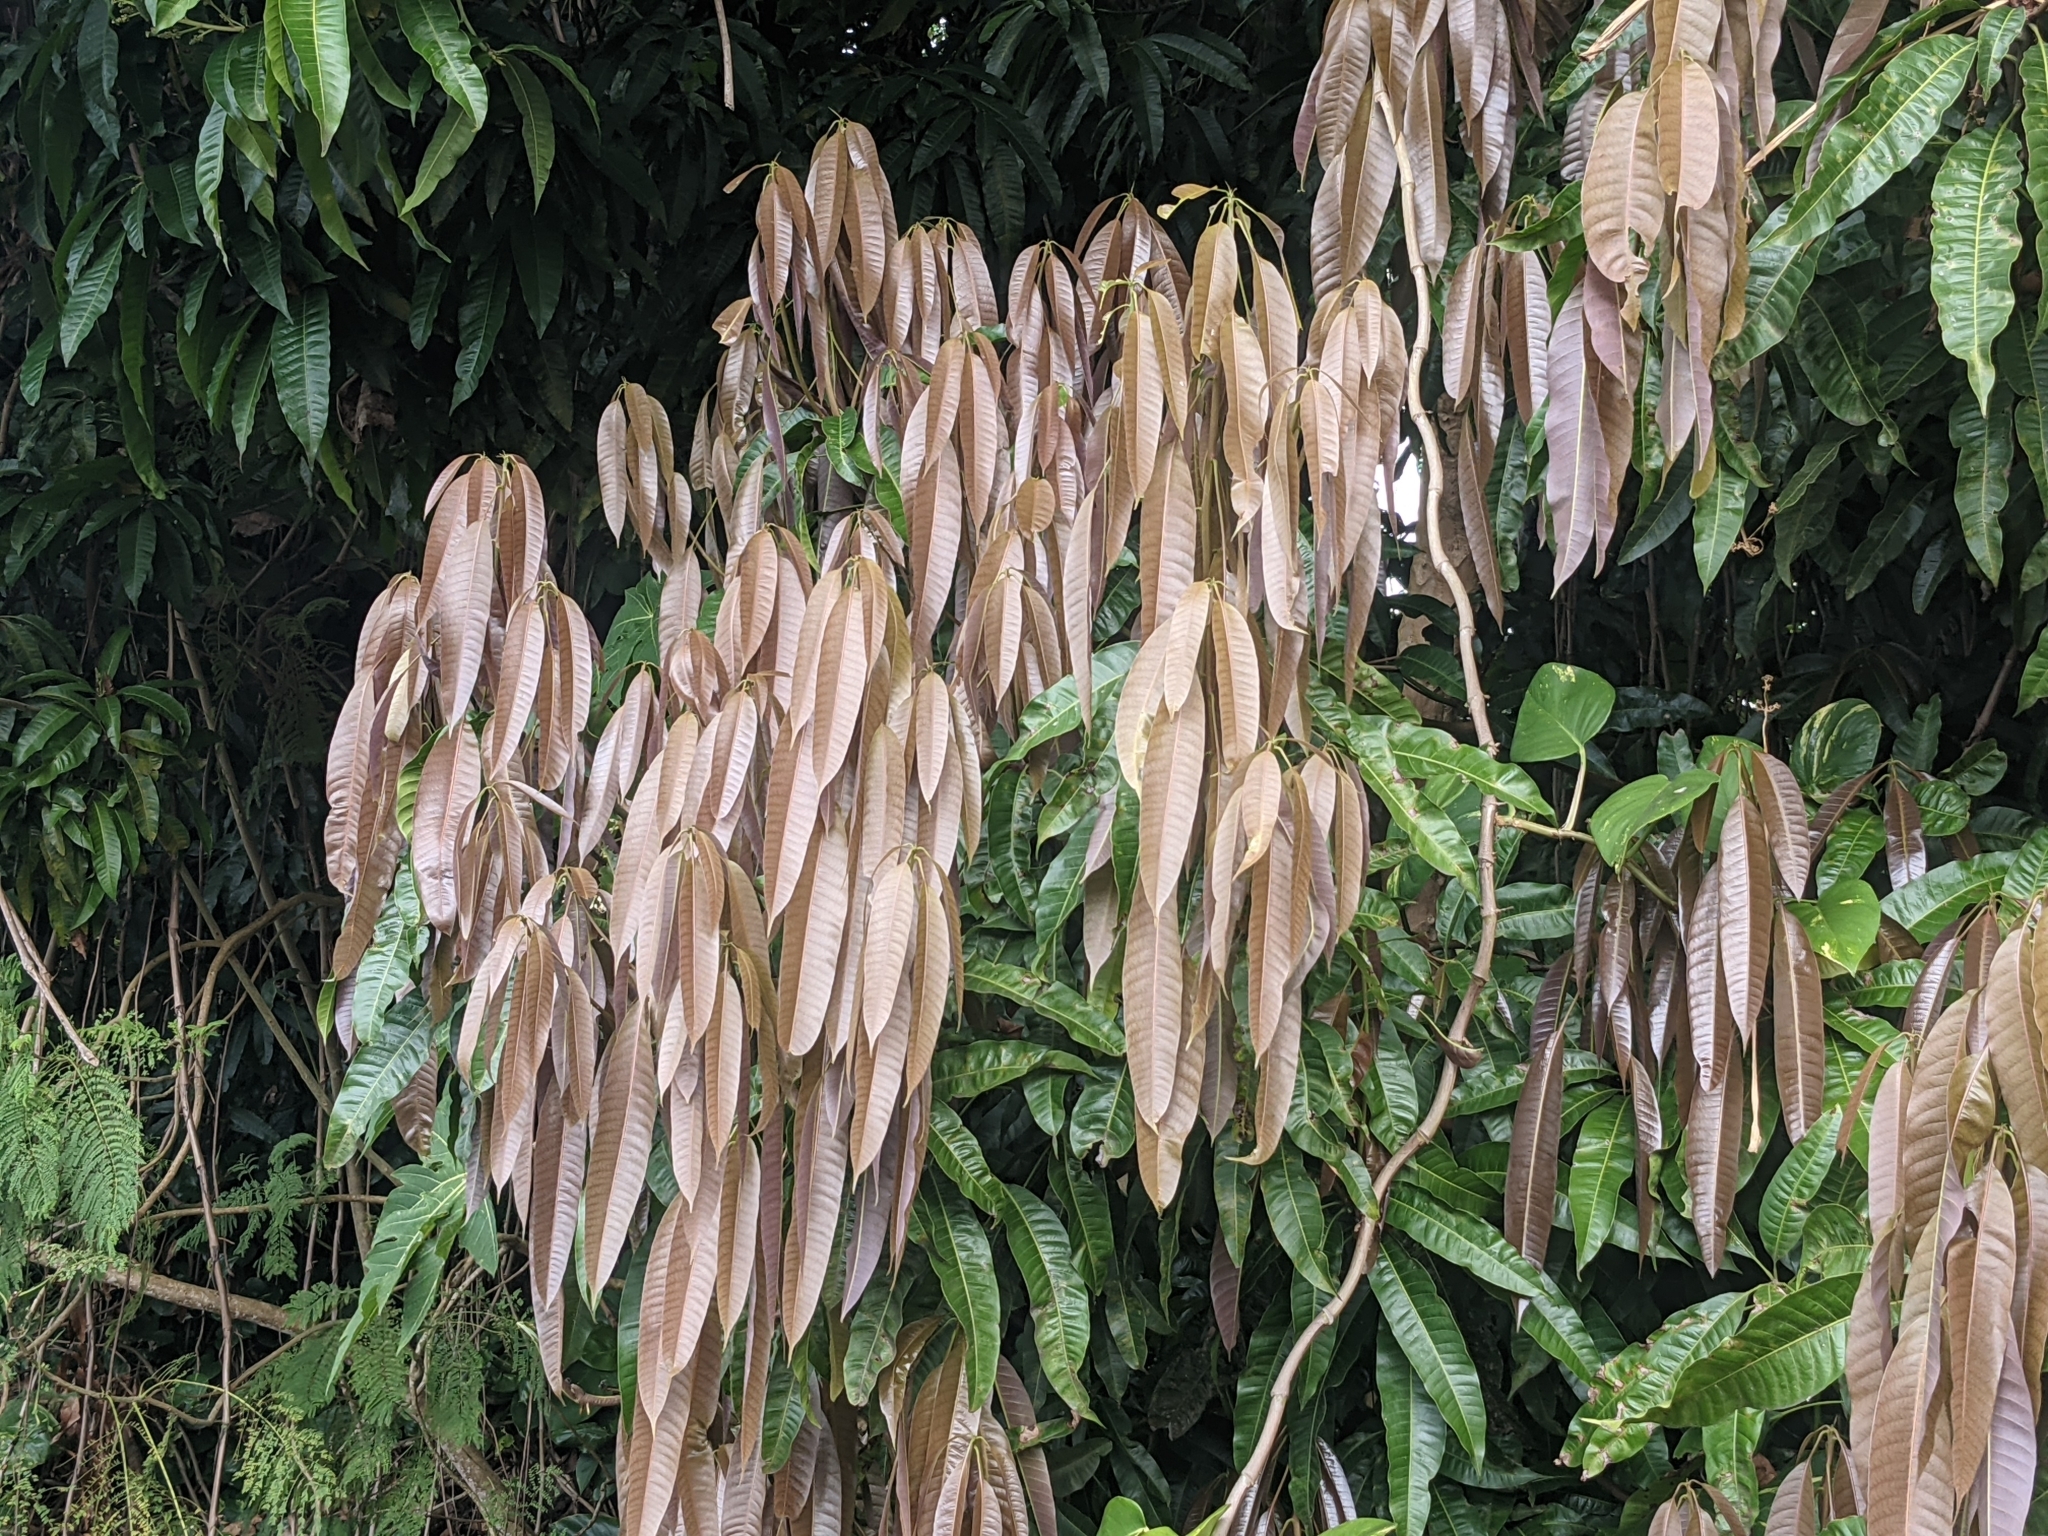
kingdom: Plantae
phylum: Tracheophyta
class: Magnoliopsida
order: Sapindales
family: Anacardiaceae
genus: Mangifera
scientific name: Mangifera indica
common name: Mango
